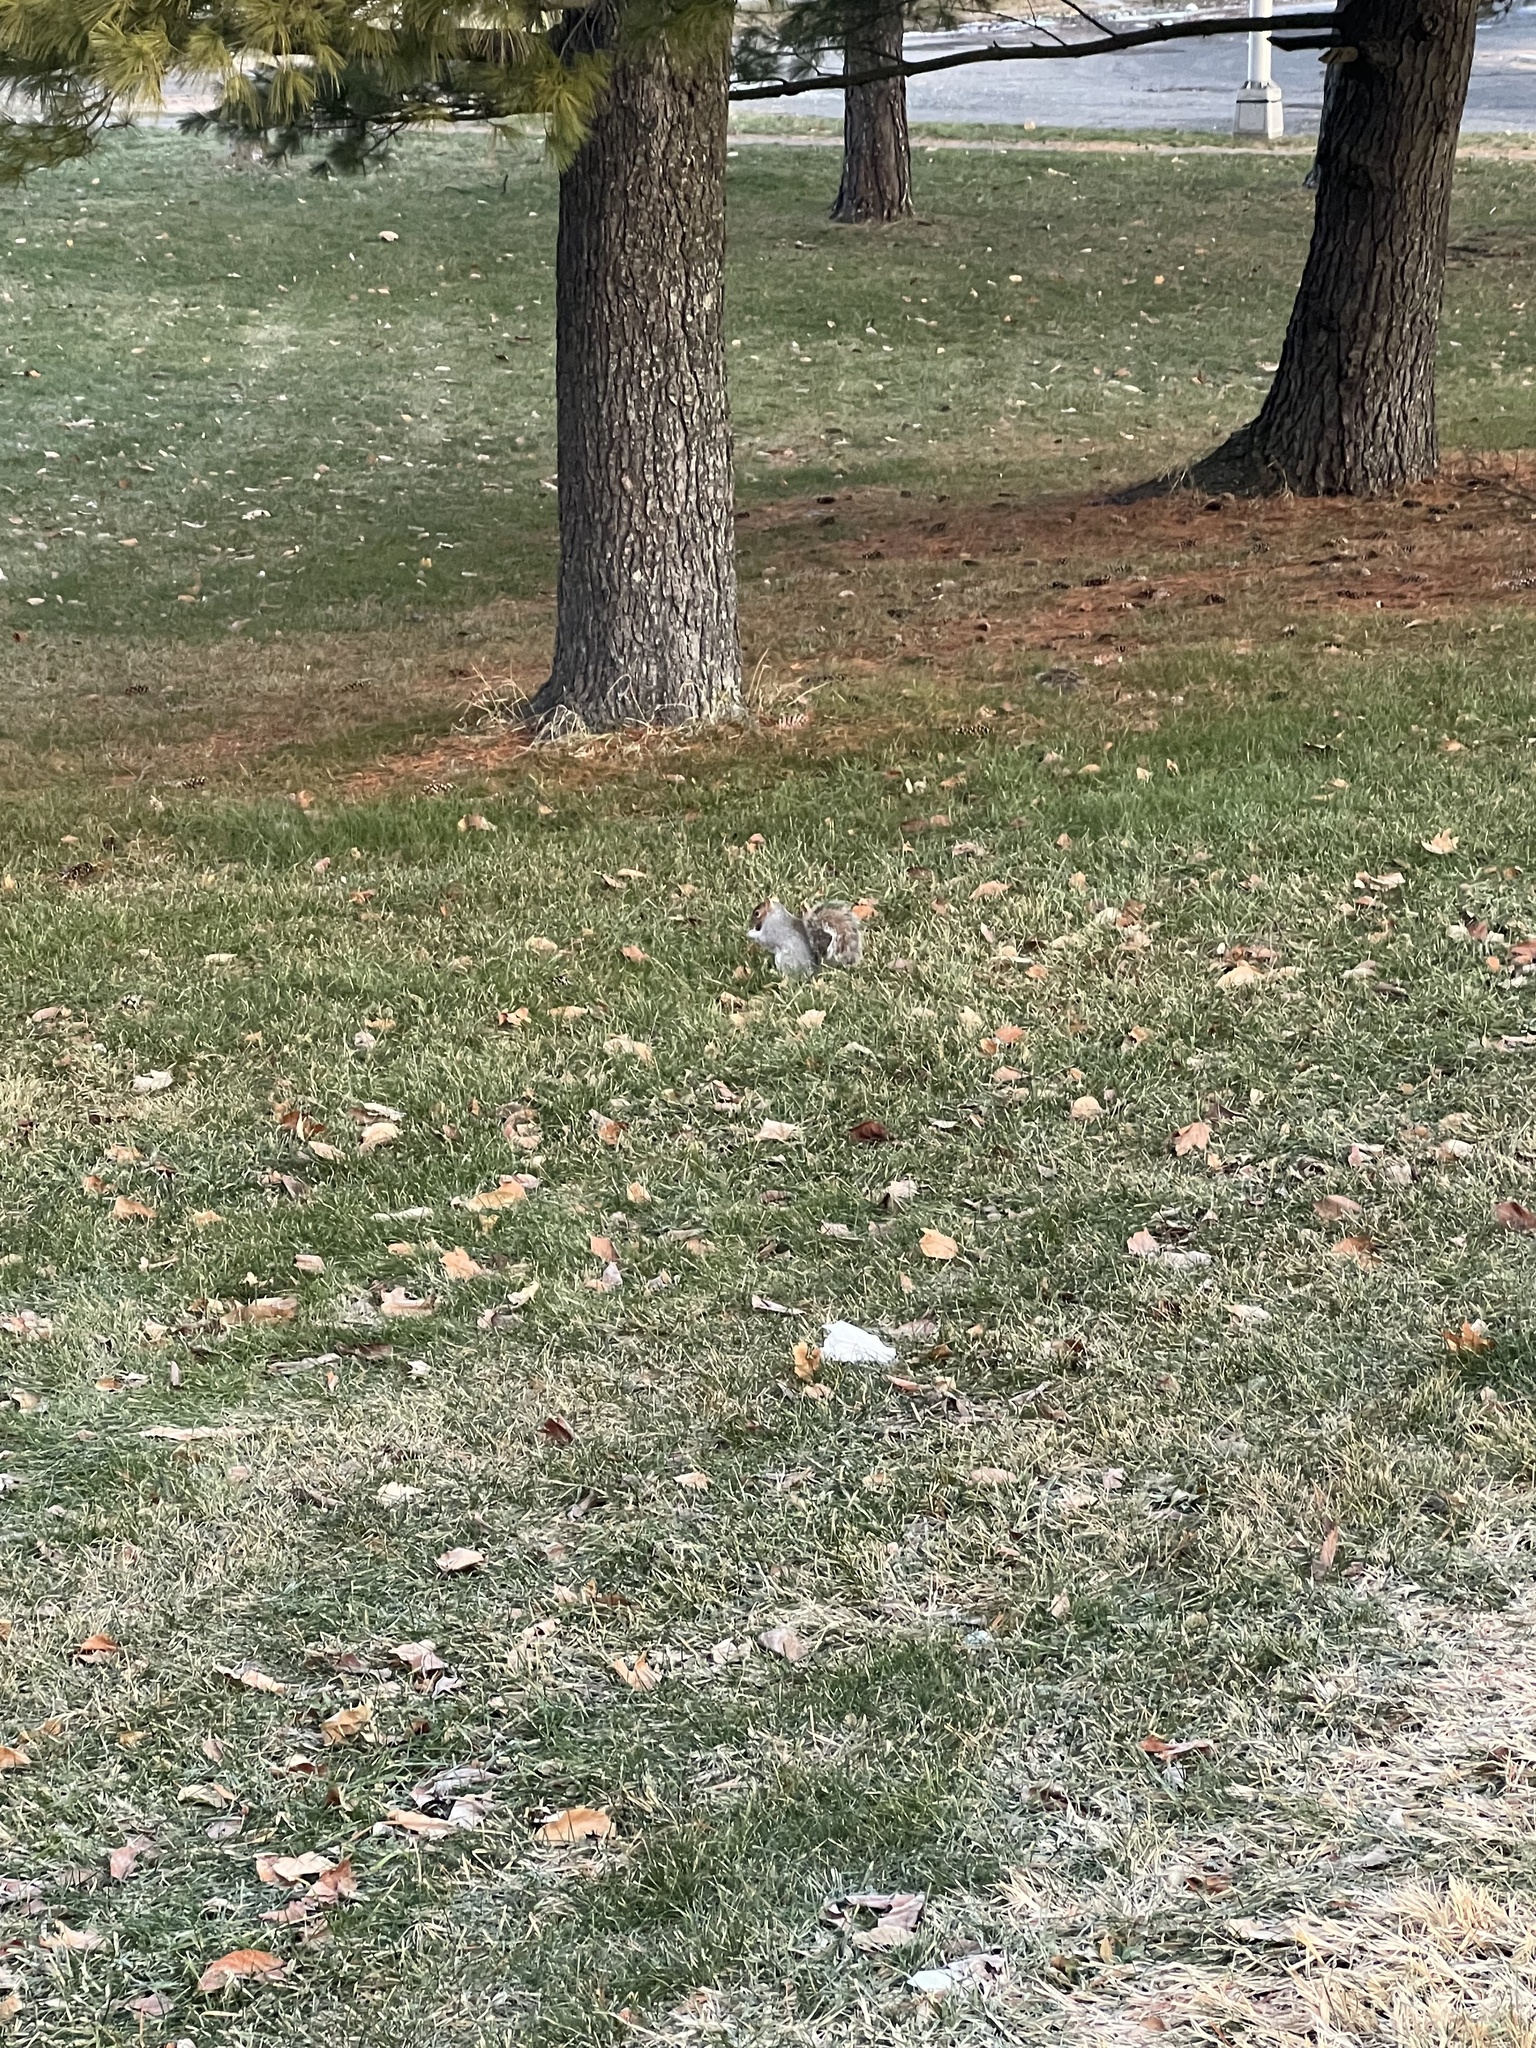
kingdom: Animalia
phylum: Chordata
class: Mammalia
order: Rodentia
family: Sciuridae
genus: Sciurus
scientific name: Sciurus carolinensis
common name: Eastern gray squirrel
